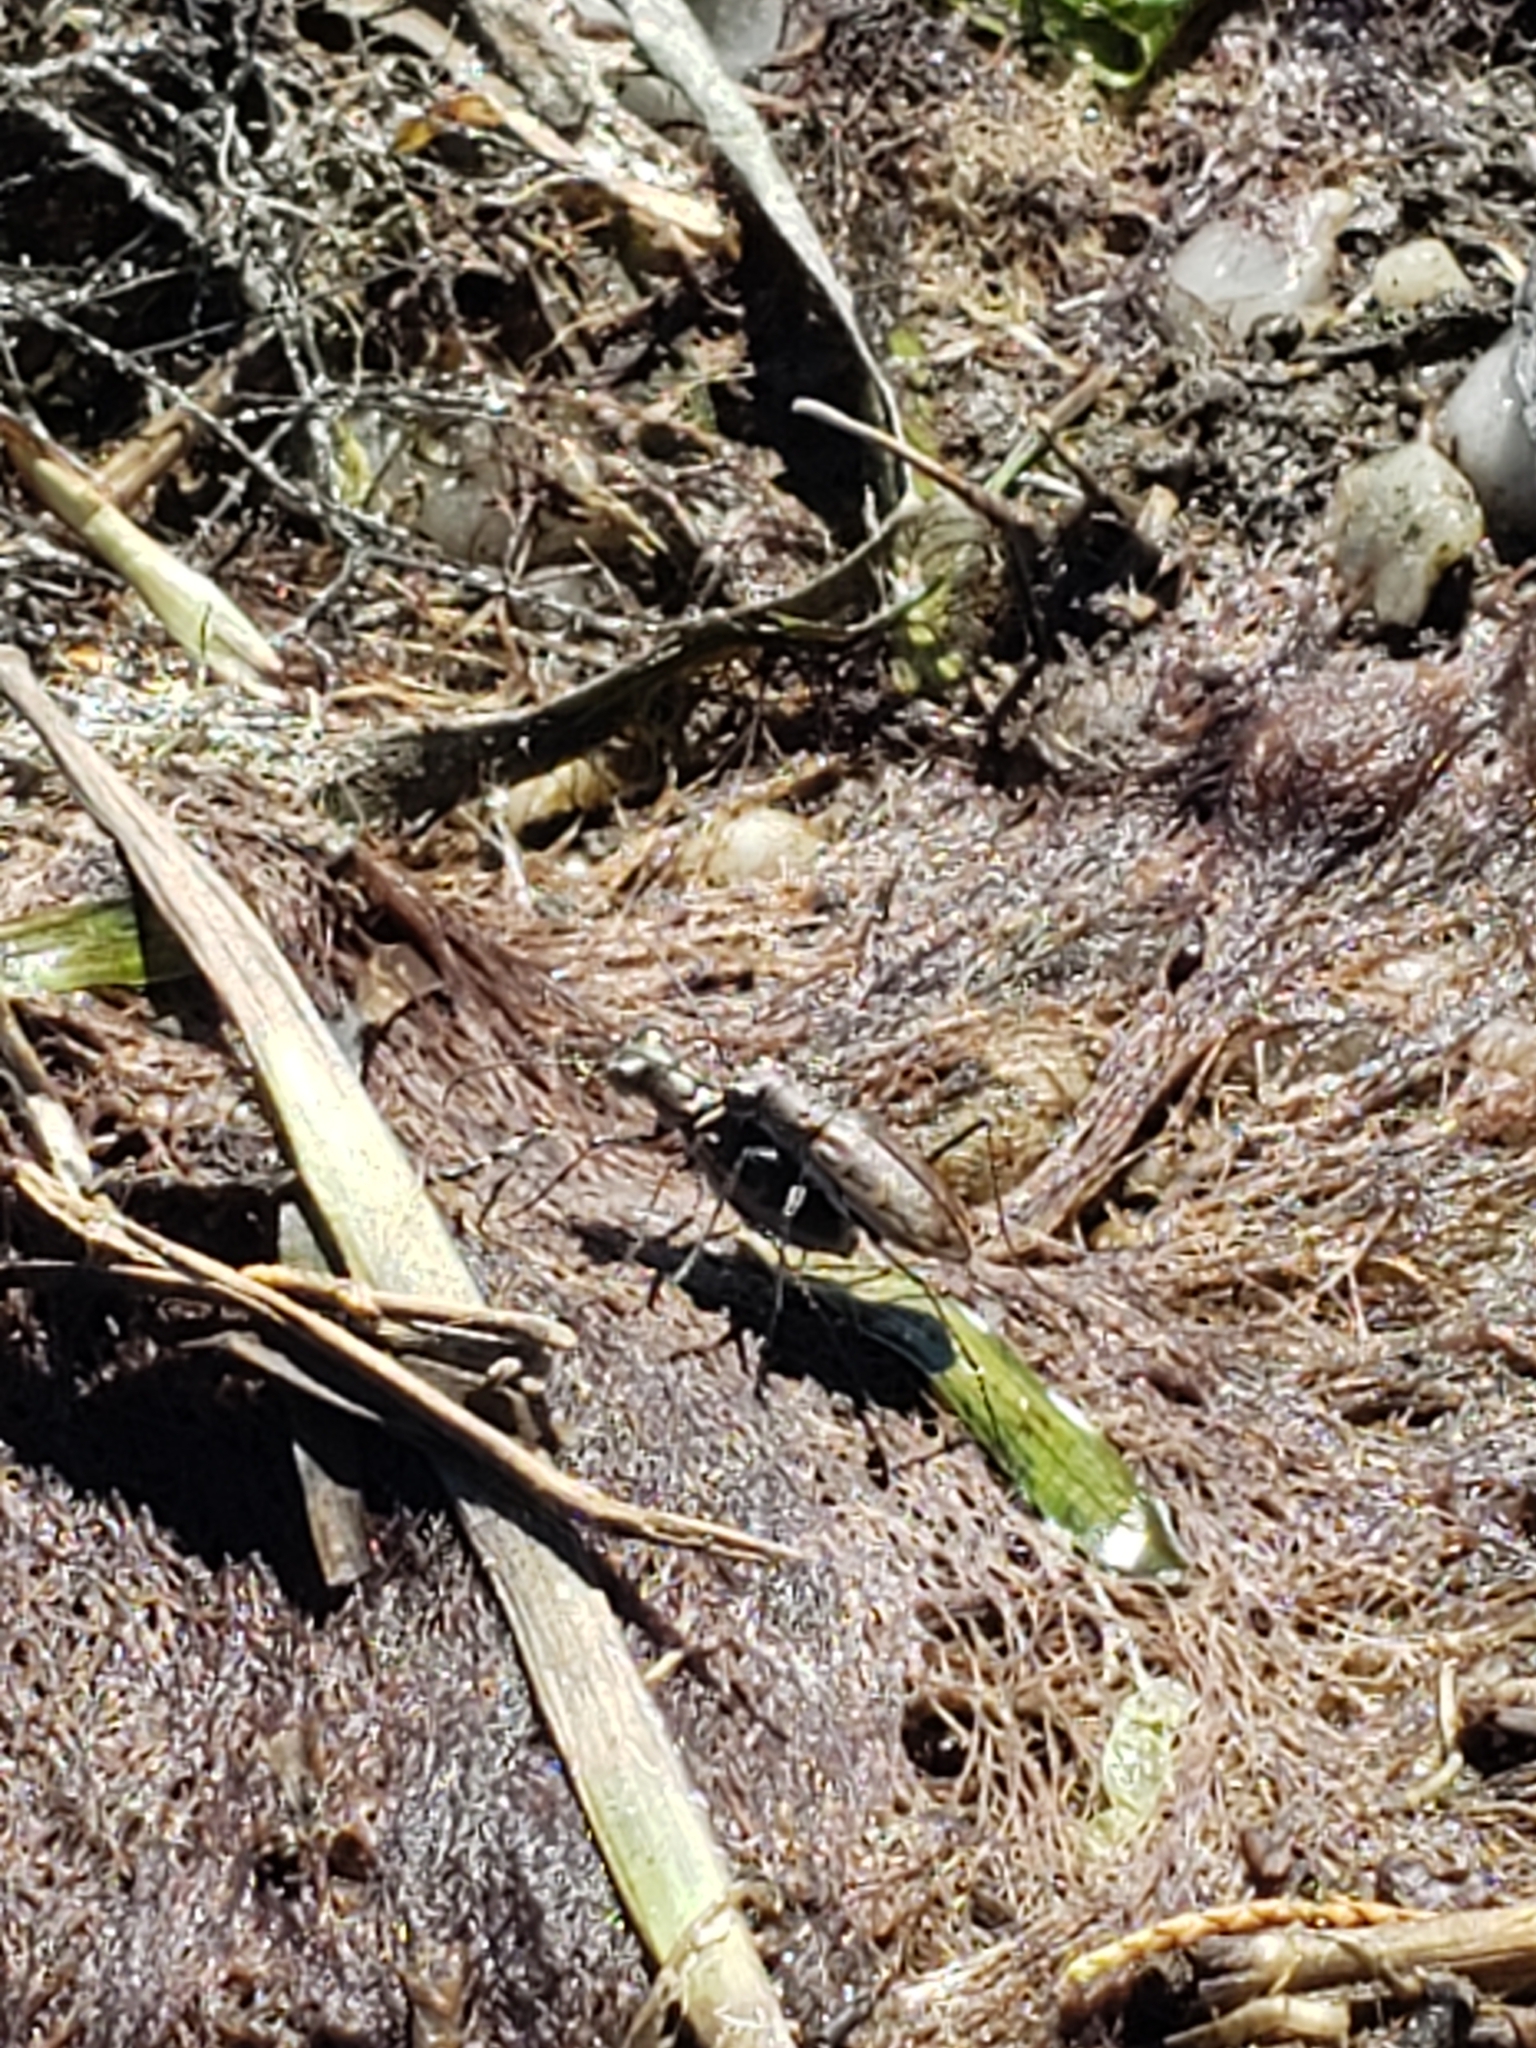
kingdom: Animalia
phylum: Arthropoda
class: Insecta
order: Coleoptera
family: Carabidae
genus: Ellipsoptera
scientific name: Ellipsoptera marginata
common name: Margined tiger beetle
